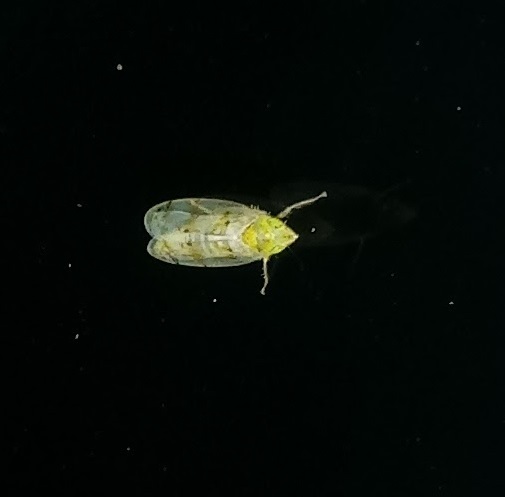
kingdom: Animalia
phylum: Arthropoda
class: Insecta
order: Hemiptera
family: Cicadellidae
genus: Japananus
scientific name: Japananus hyalinus
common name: The japanese maple leafhopper
